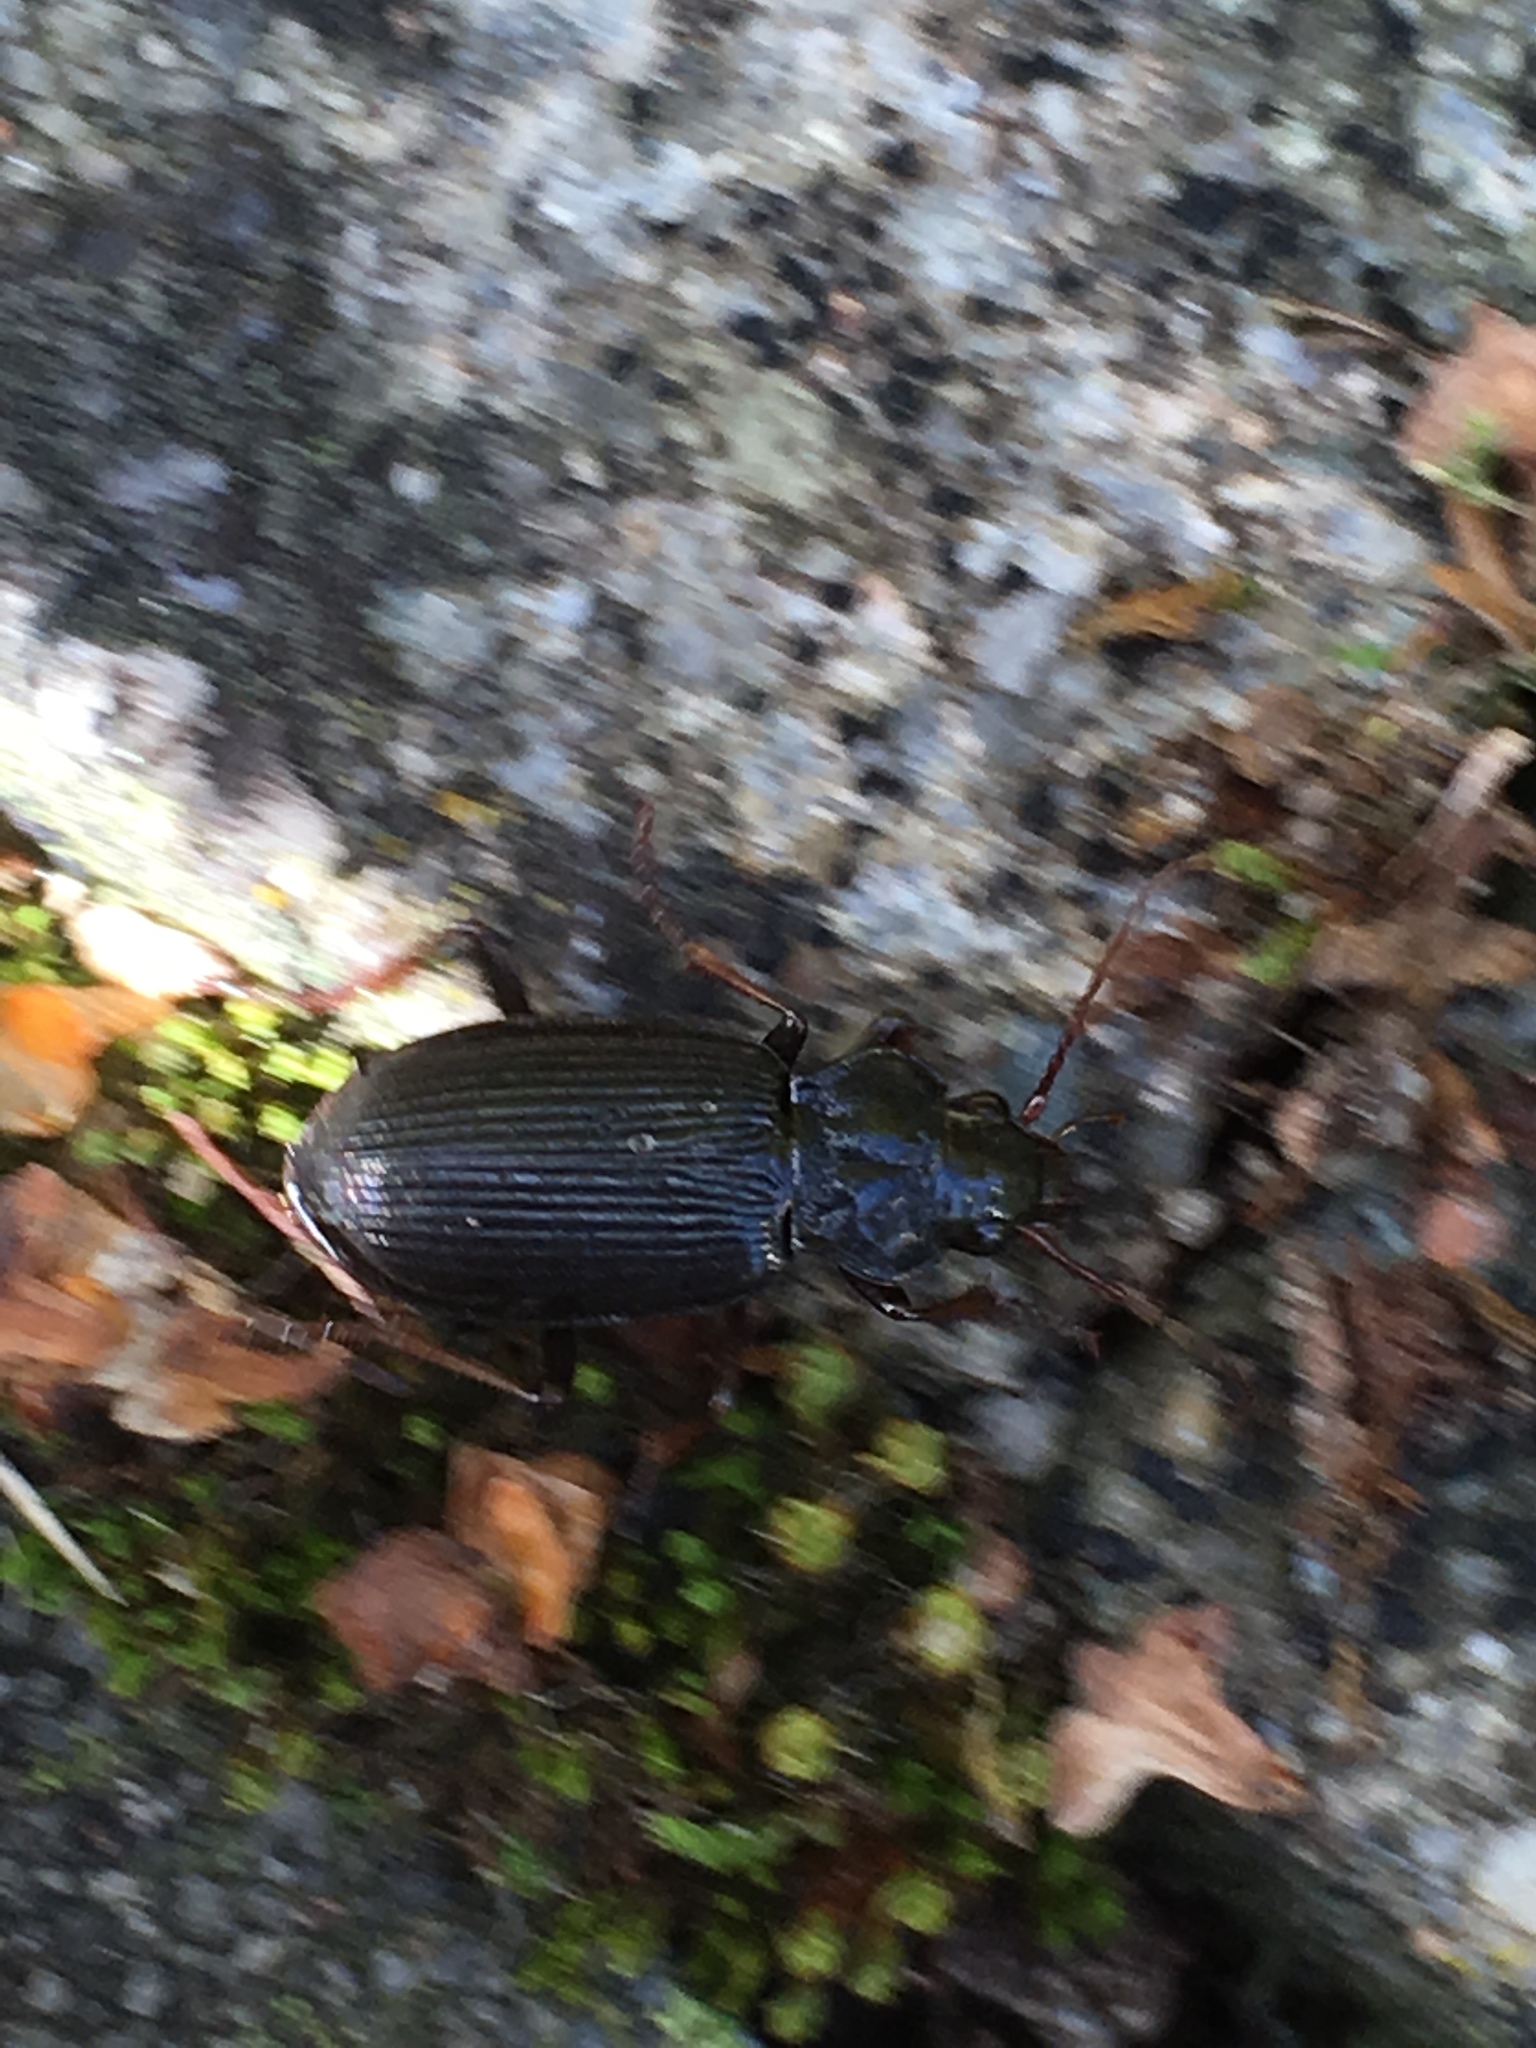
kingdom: Animalia
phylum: Arthropoda
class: Insecta
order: Coleoptera
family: Carabidae
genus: Nebria
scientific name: Nebria brevicollis
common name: Short-necked gazelle beetle
